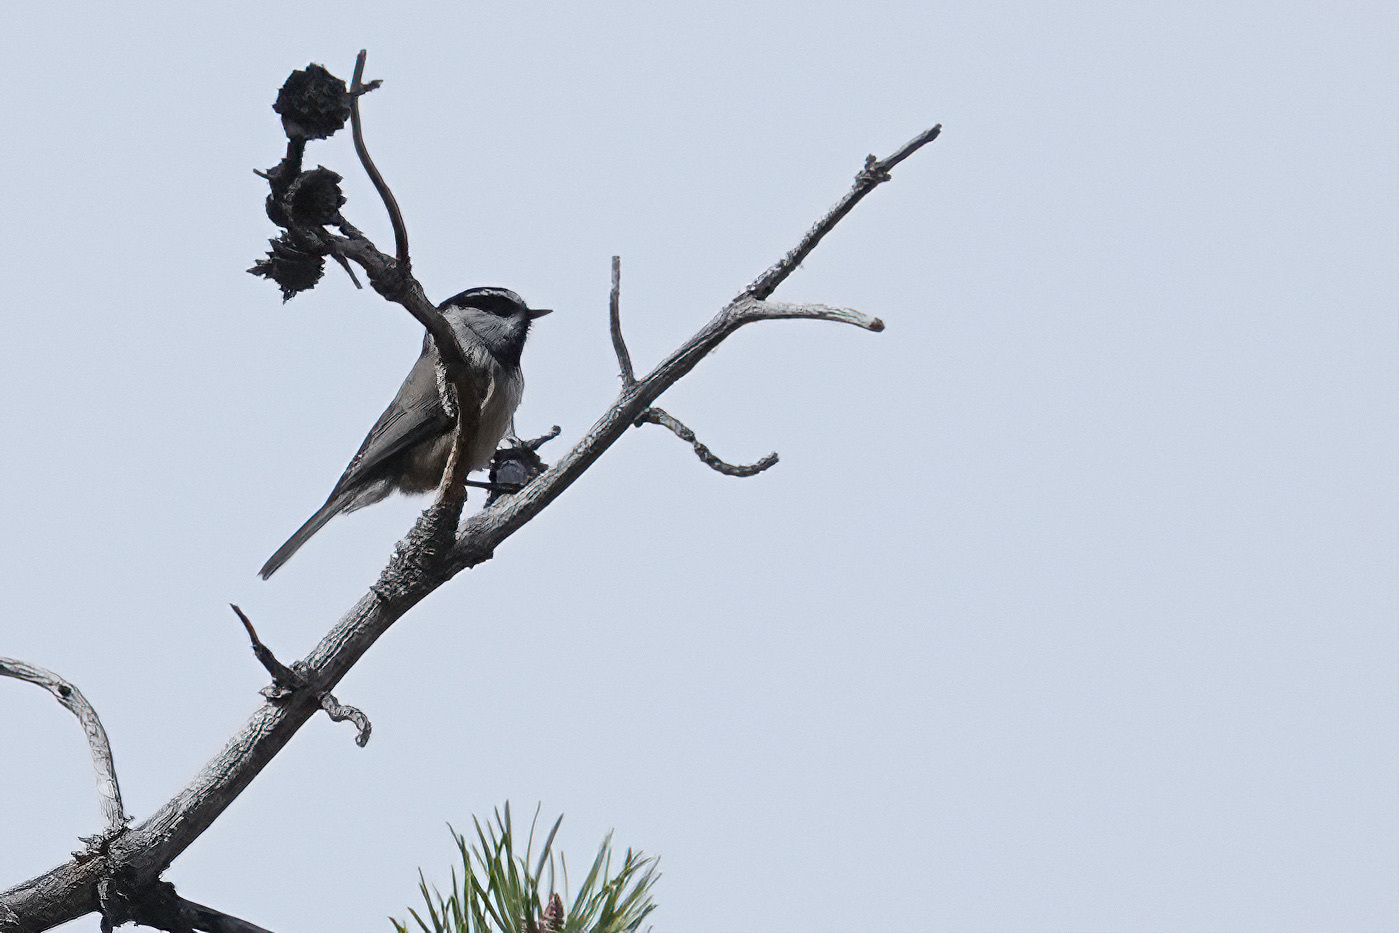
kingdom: Animalia
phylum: Chordata
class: Aves
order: Passeriformes
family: Paridae
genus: Poecile
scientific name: Poecile gambeli
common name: Mountain chickadee
